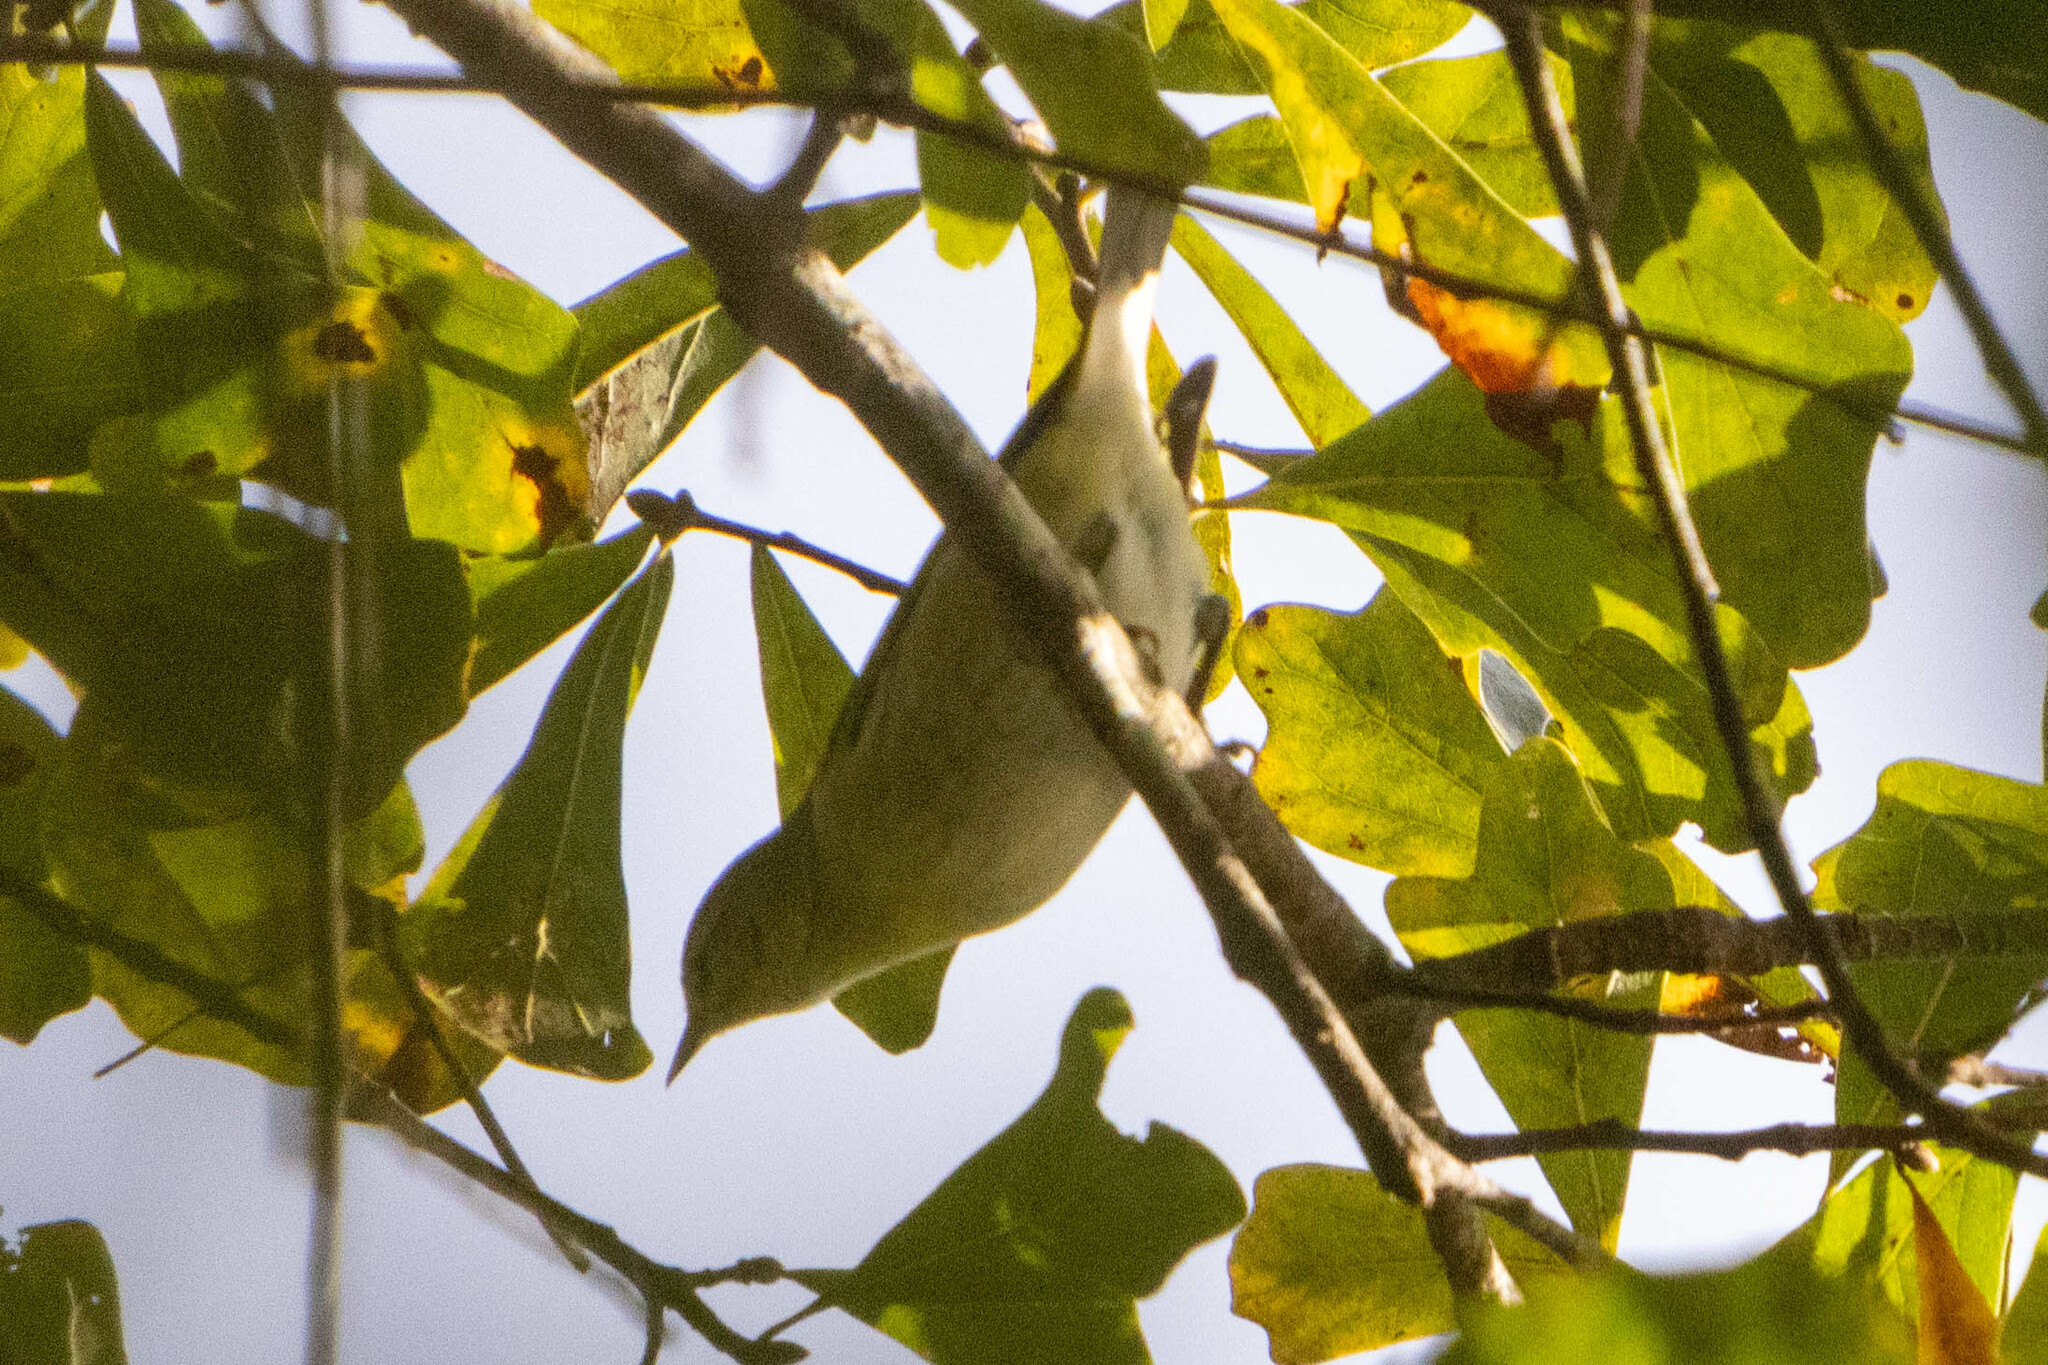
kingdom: Animalia
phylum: Chordata
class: Aves
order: Passeriformes
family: Parulidae
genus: Leiothlypis
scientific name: Leiothlypis peregrina
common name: Tennessee warbler
